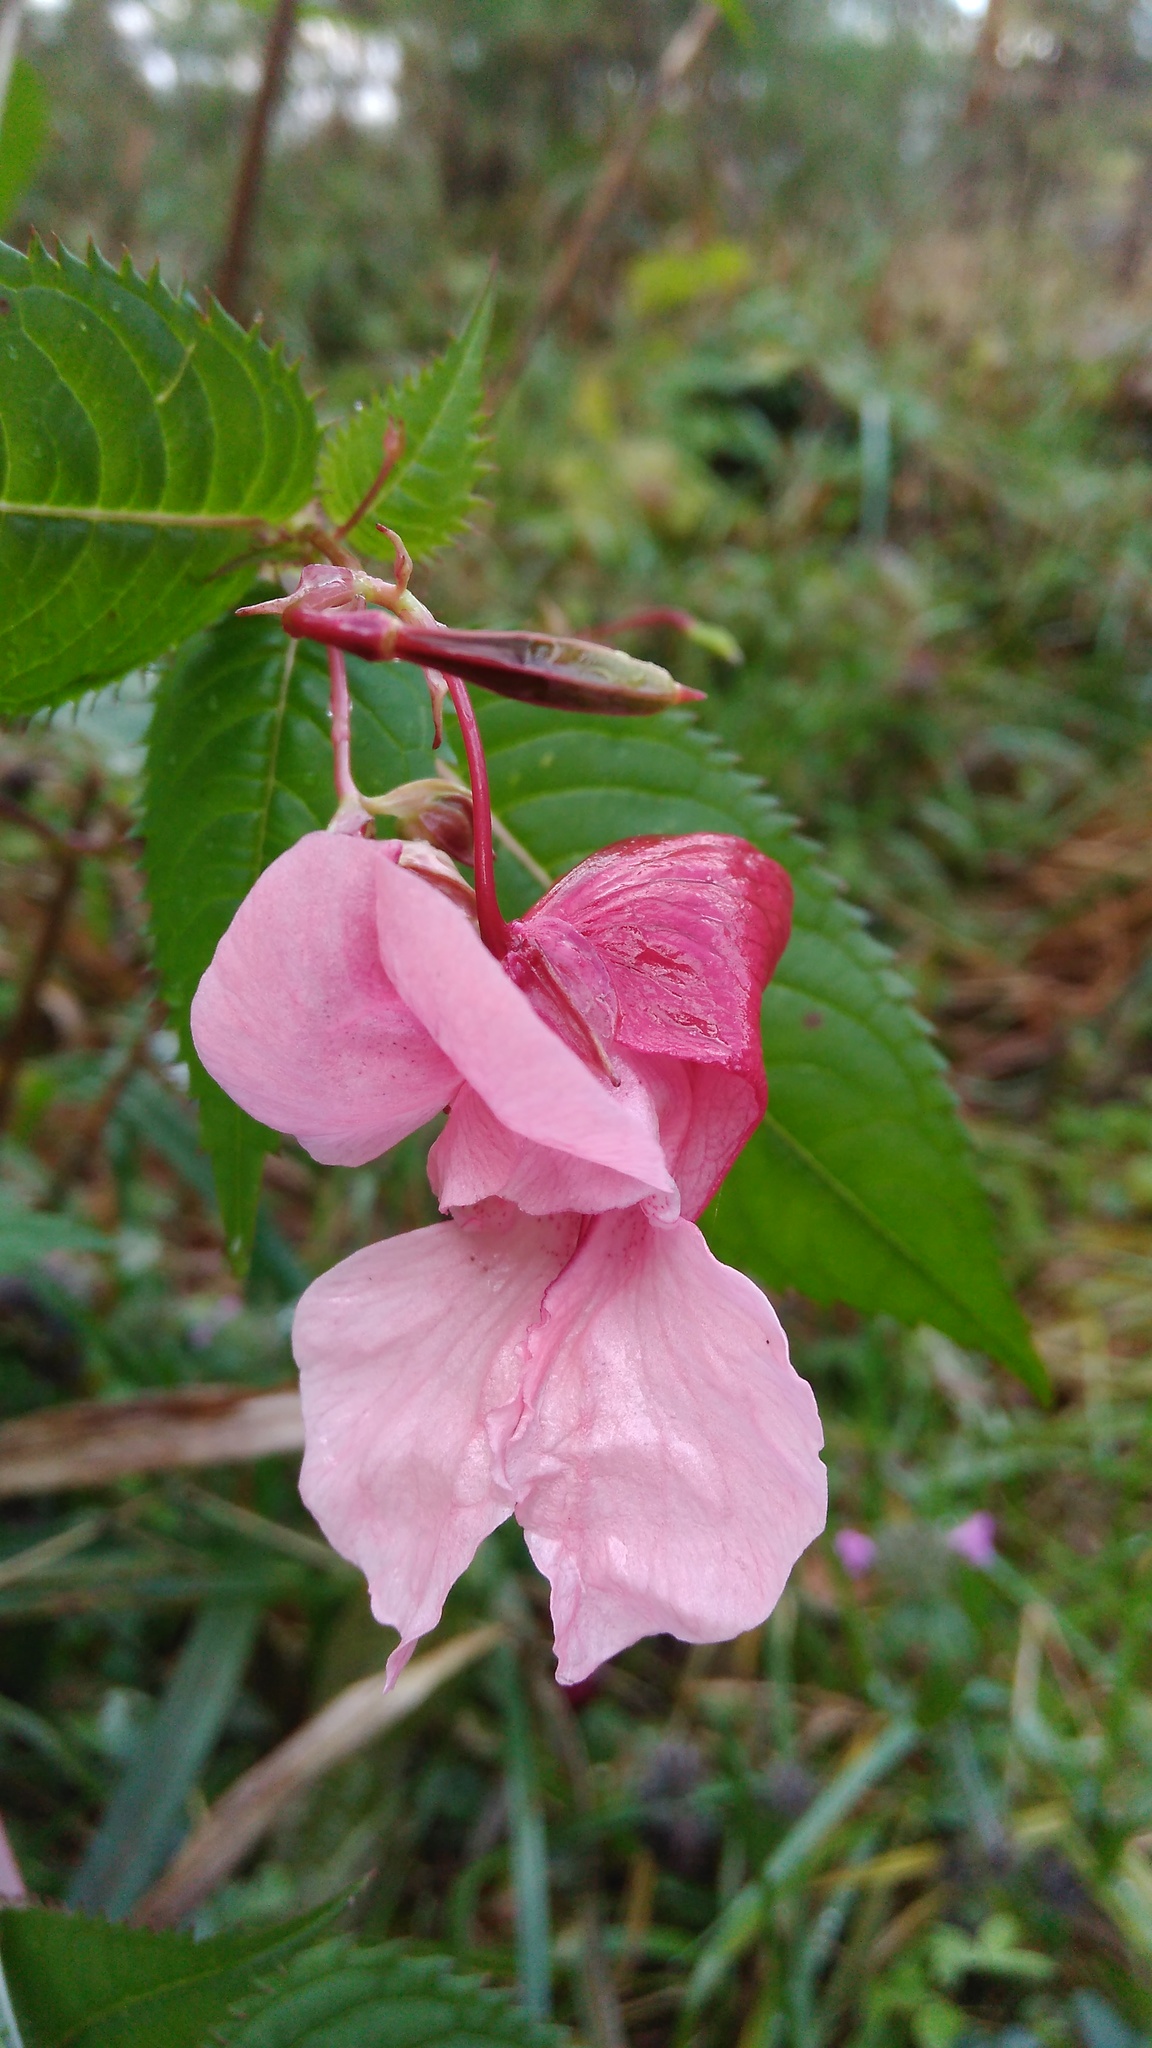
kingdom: Plantae
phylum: Tracheophyta
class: Magnoliopsida
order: Ericales
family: Balsaminaceae
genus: Impatiens
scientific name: Impatiens glandulifera
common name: Himalayan balsam
